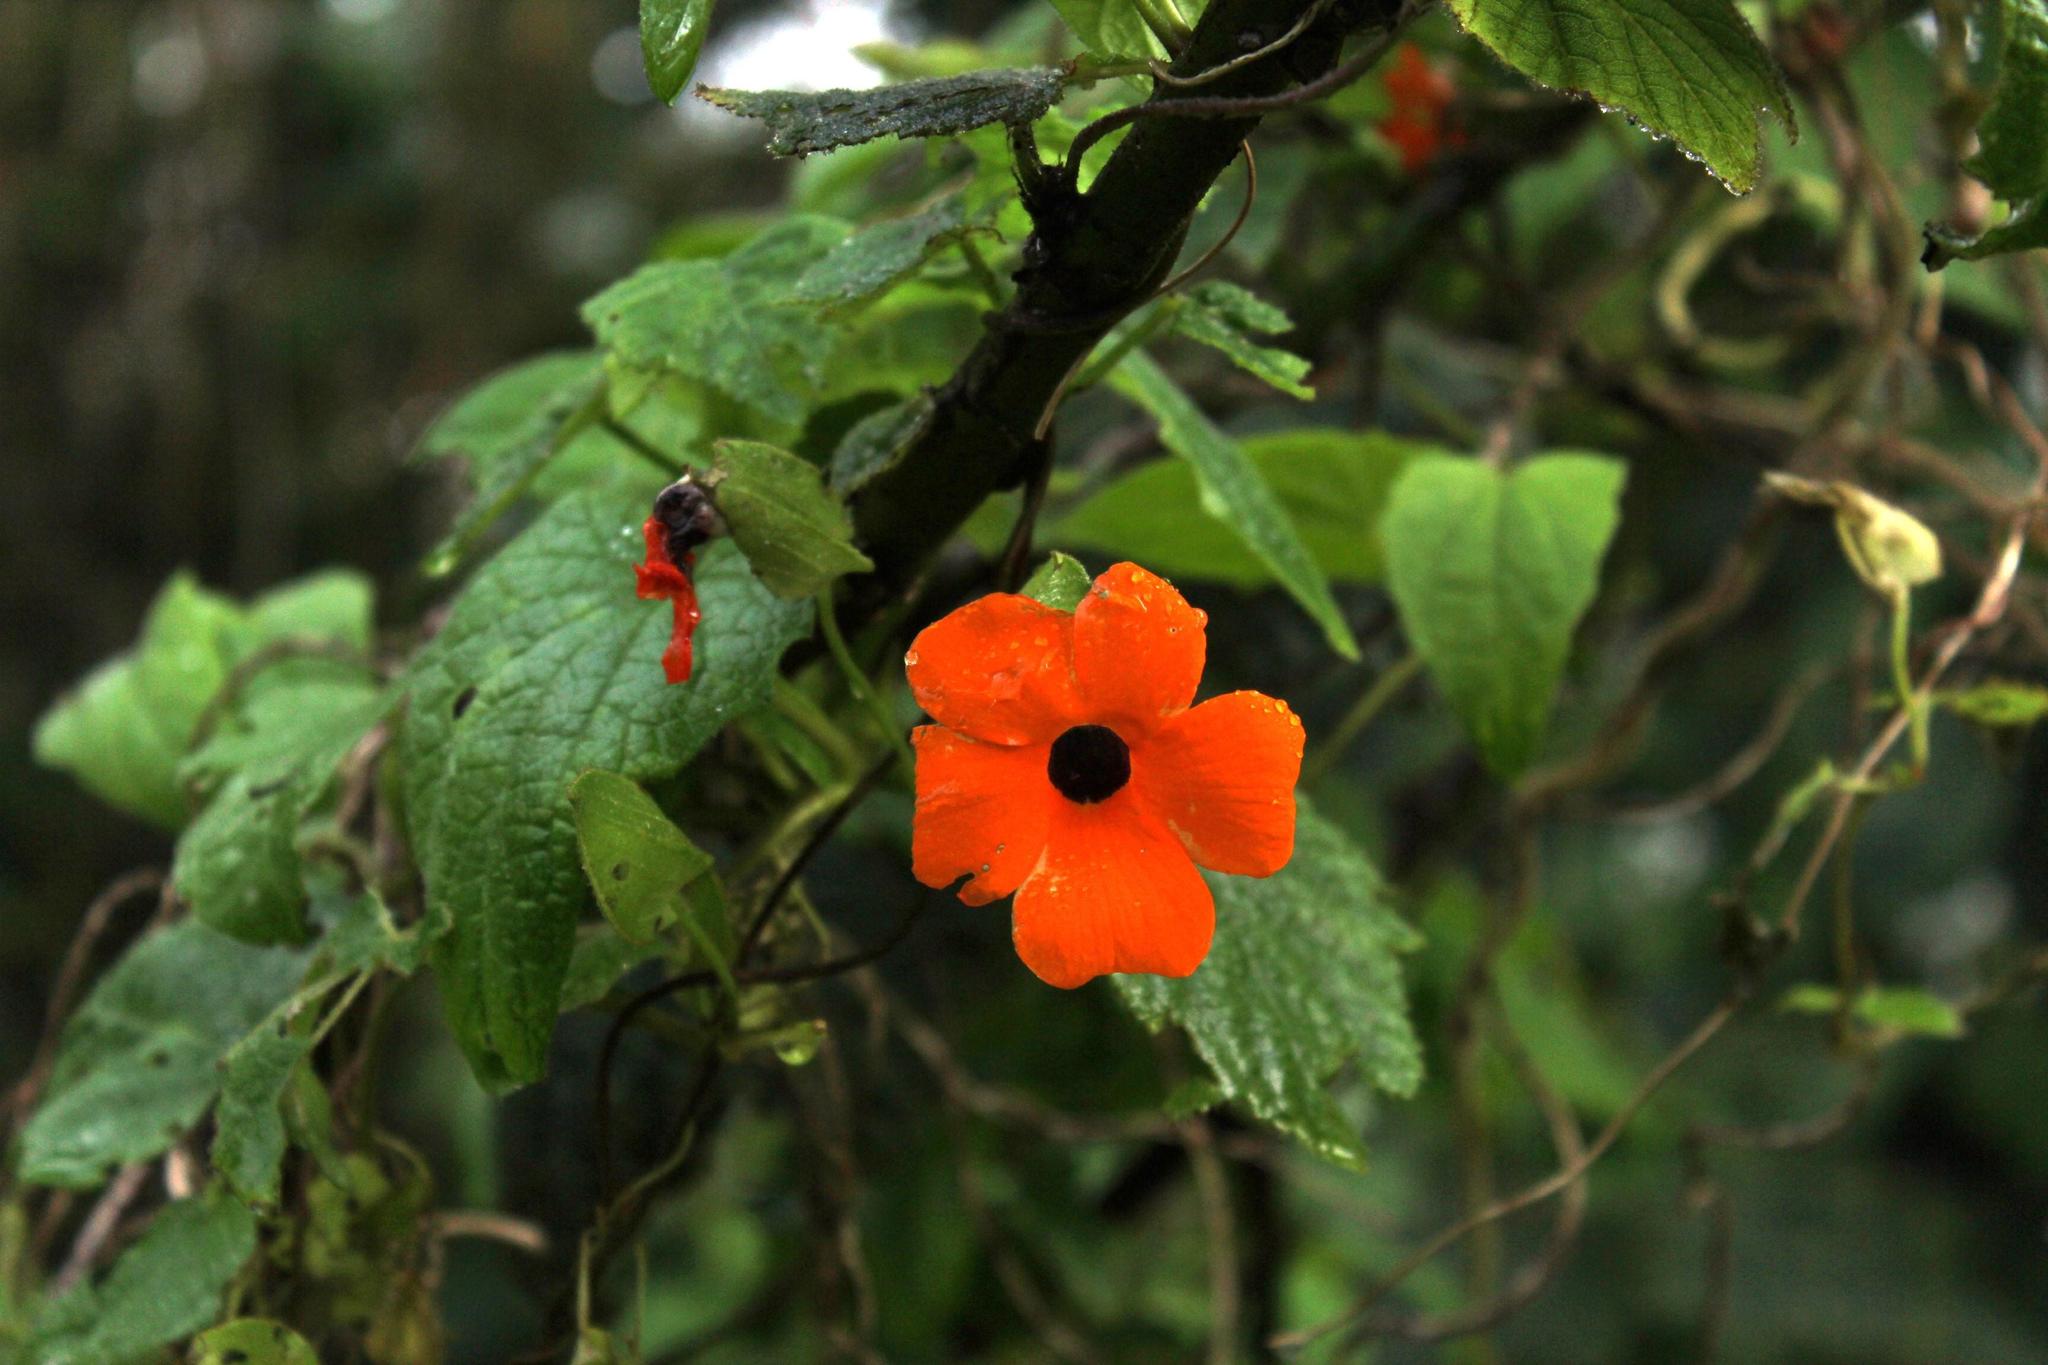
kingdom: Plantae
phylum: Tracheophyta
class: Magnoliopsida
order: Lamiales
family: Acanthaceae
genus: Thunbergia
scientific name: Thunbergia alata
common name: Blackeyed susan vine
